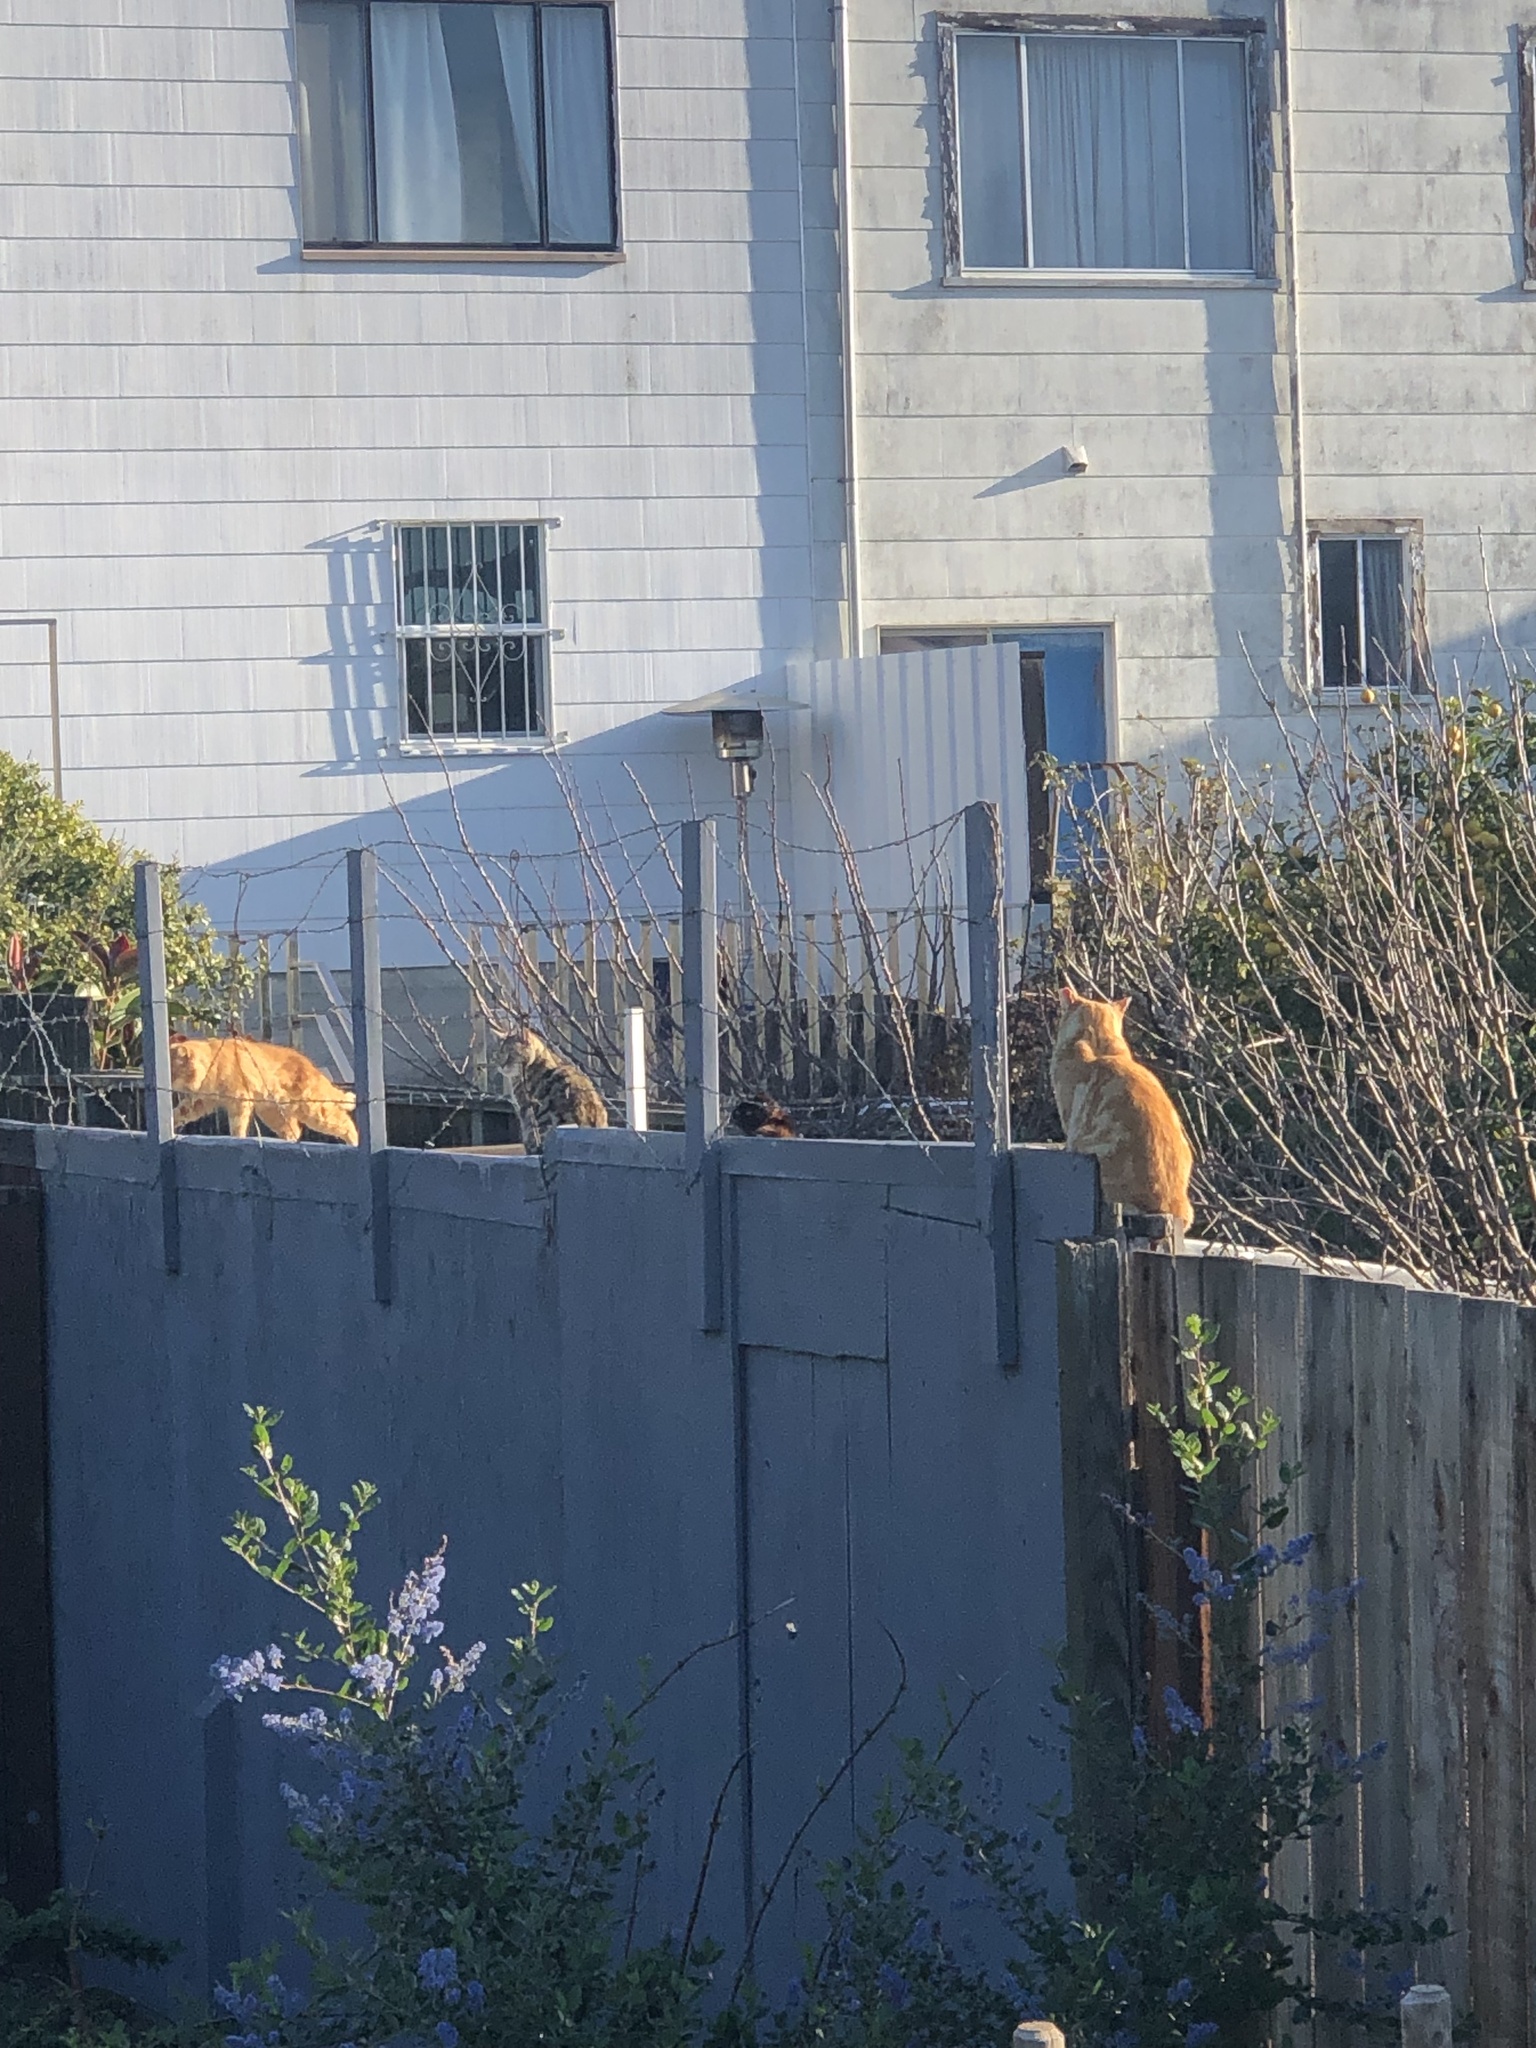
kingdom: Animalia
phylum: Chordata
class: Mammalia
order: Carnivora
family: Felidae
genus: Felis
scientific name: Felis catus
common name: Domestic cat
